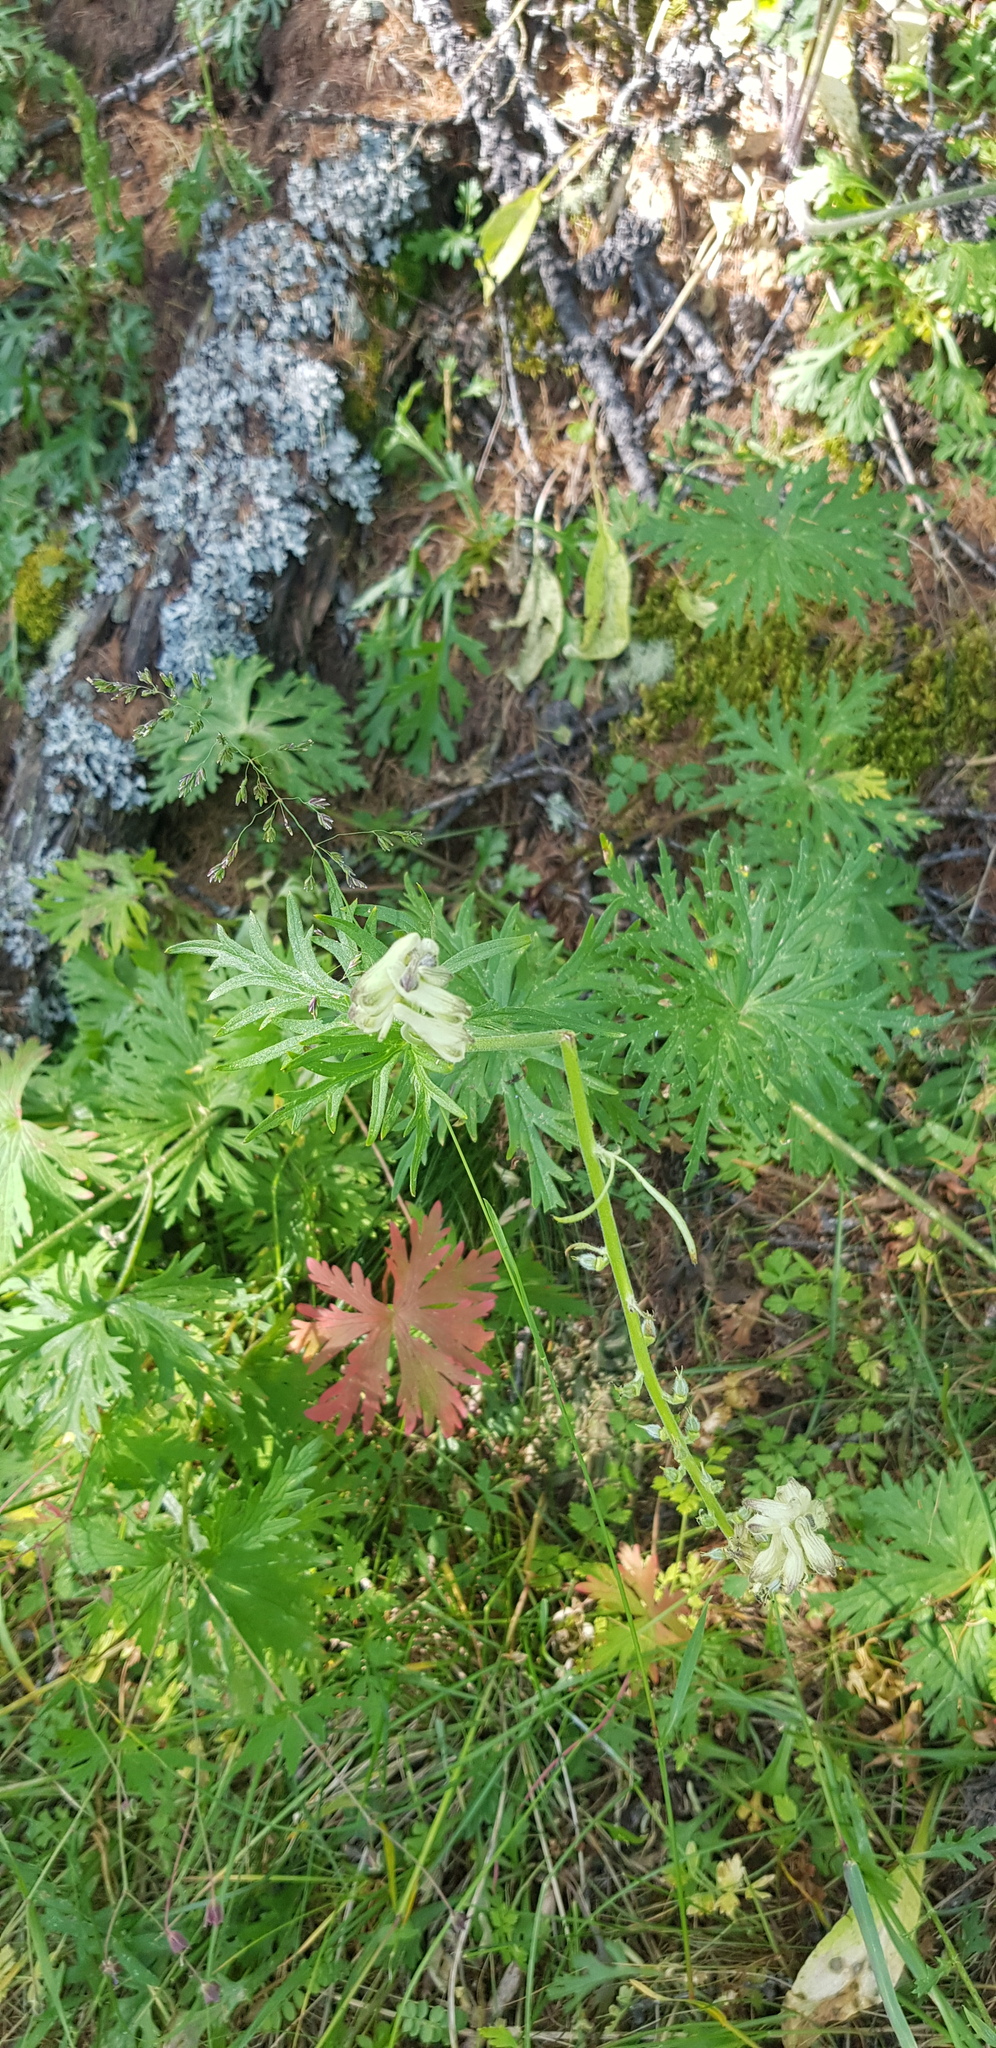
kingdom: Plantae
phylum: Tracheophyta
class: Magnoliopsida
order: Ranunculales
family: Ranunculaceae
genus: Aconitum
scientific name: Aconitum barbatum
